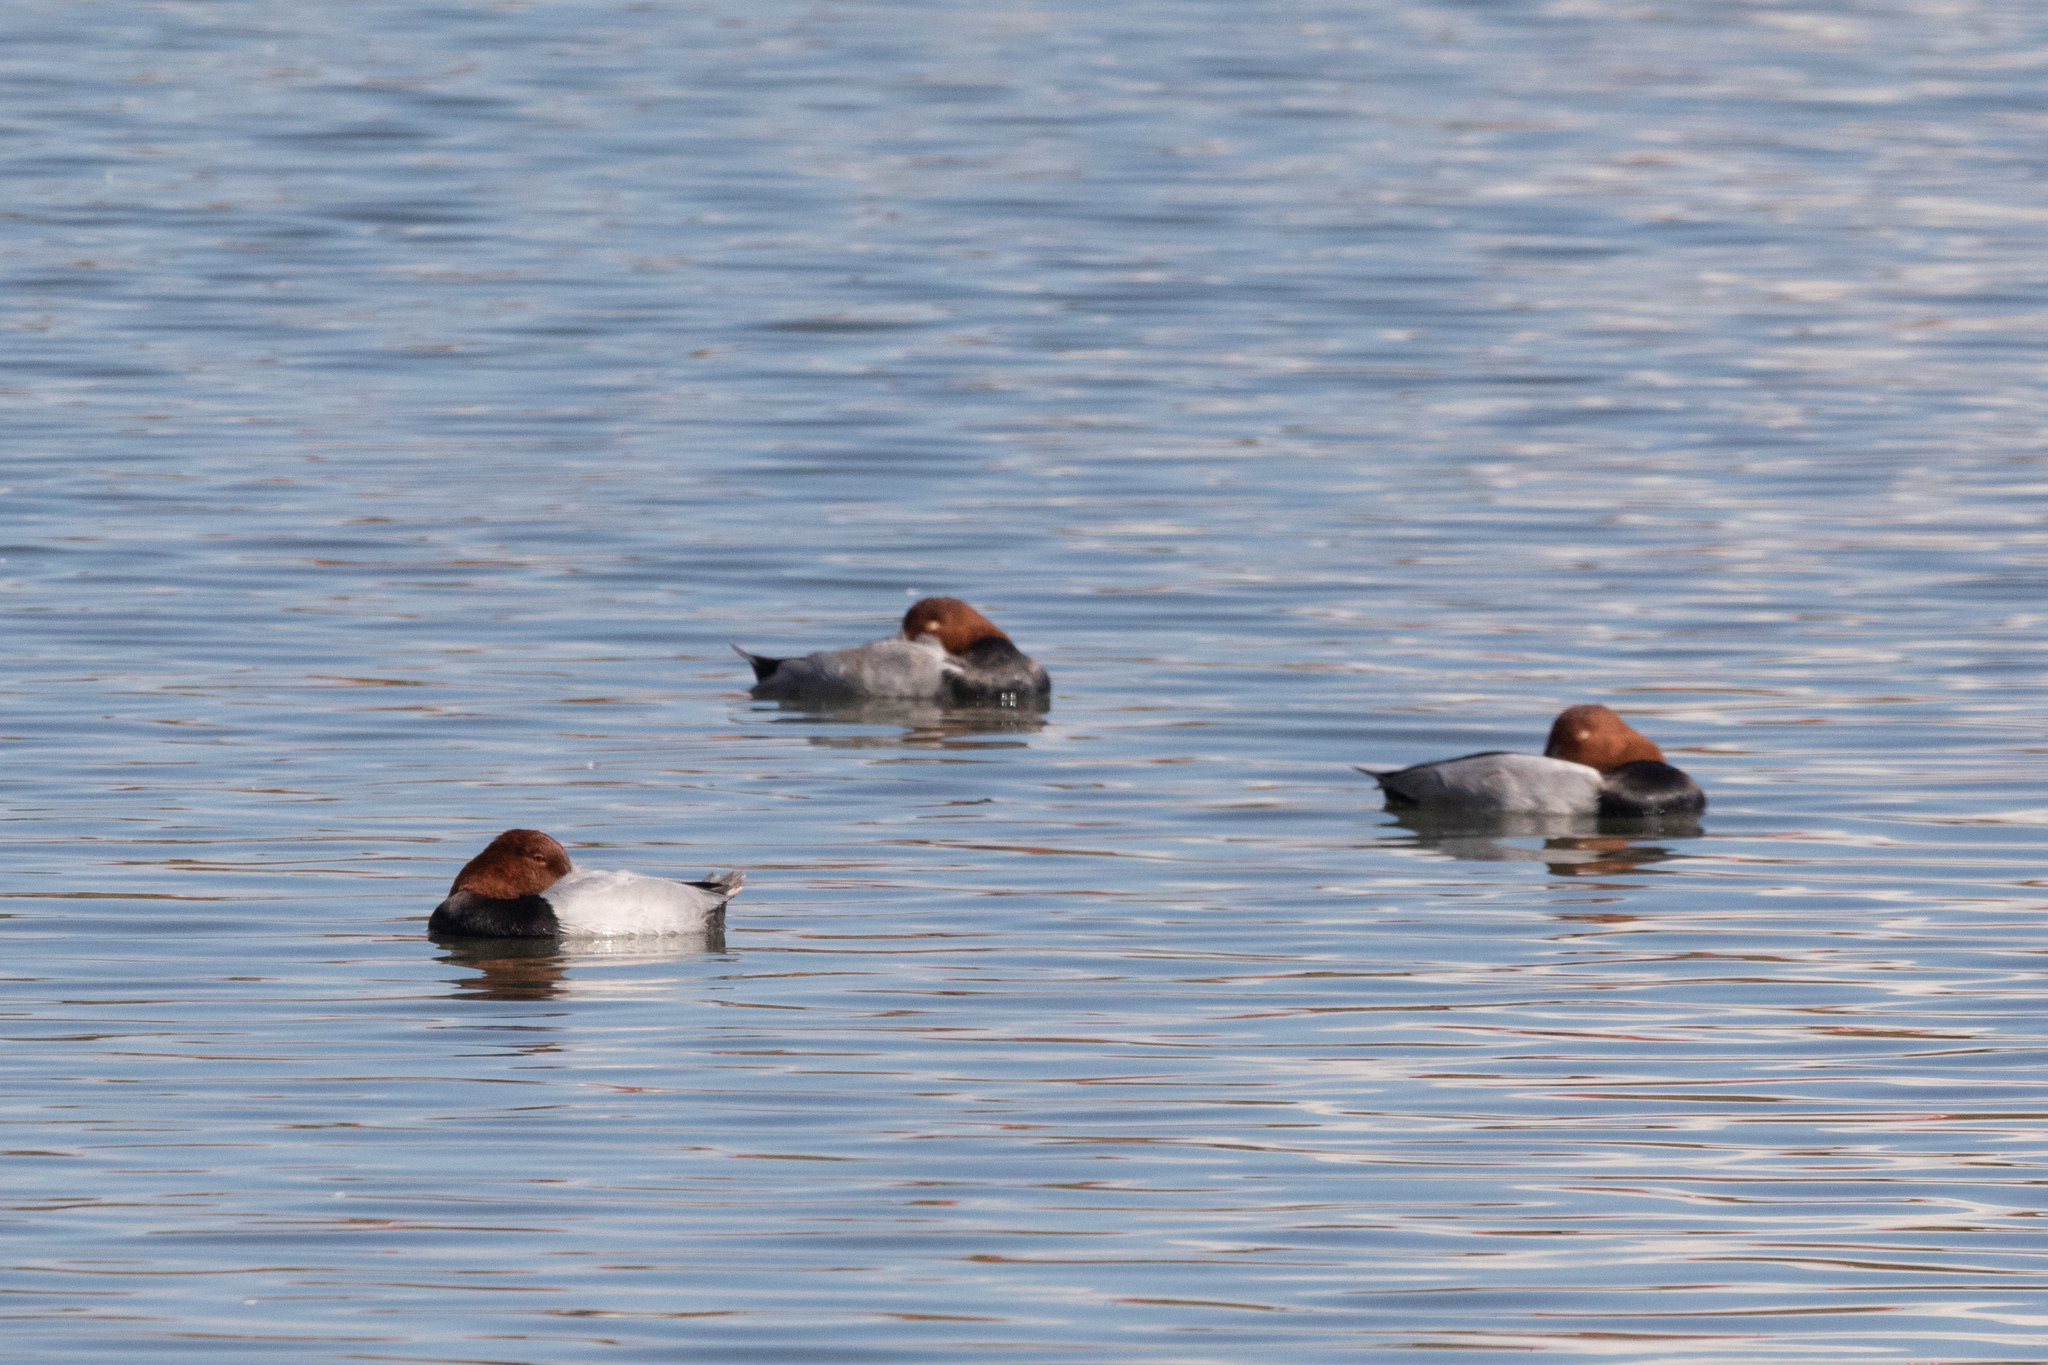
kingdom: Animalia
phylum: Chordata
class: Aves
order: Anseriformes
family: Anatidae
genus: Aythya
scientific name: Aythya ferina
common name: Common pochard
